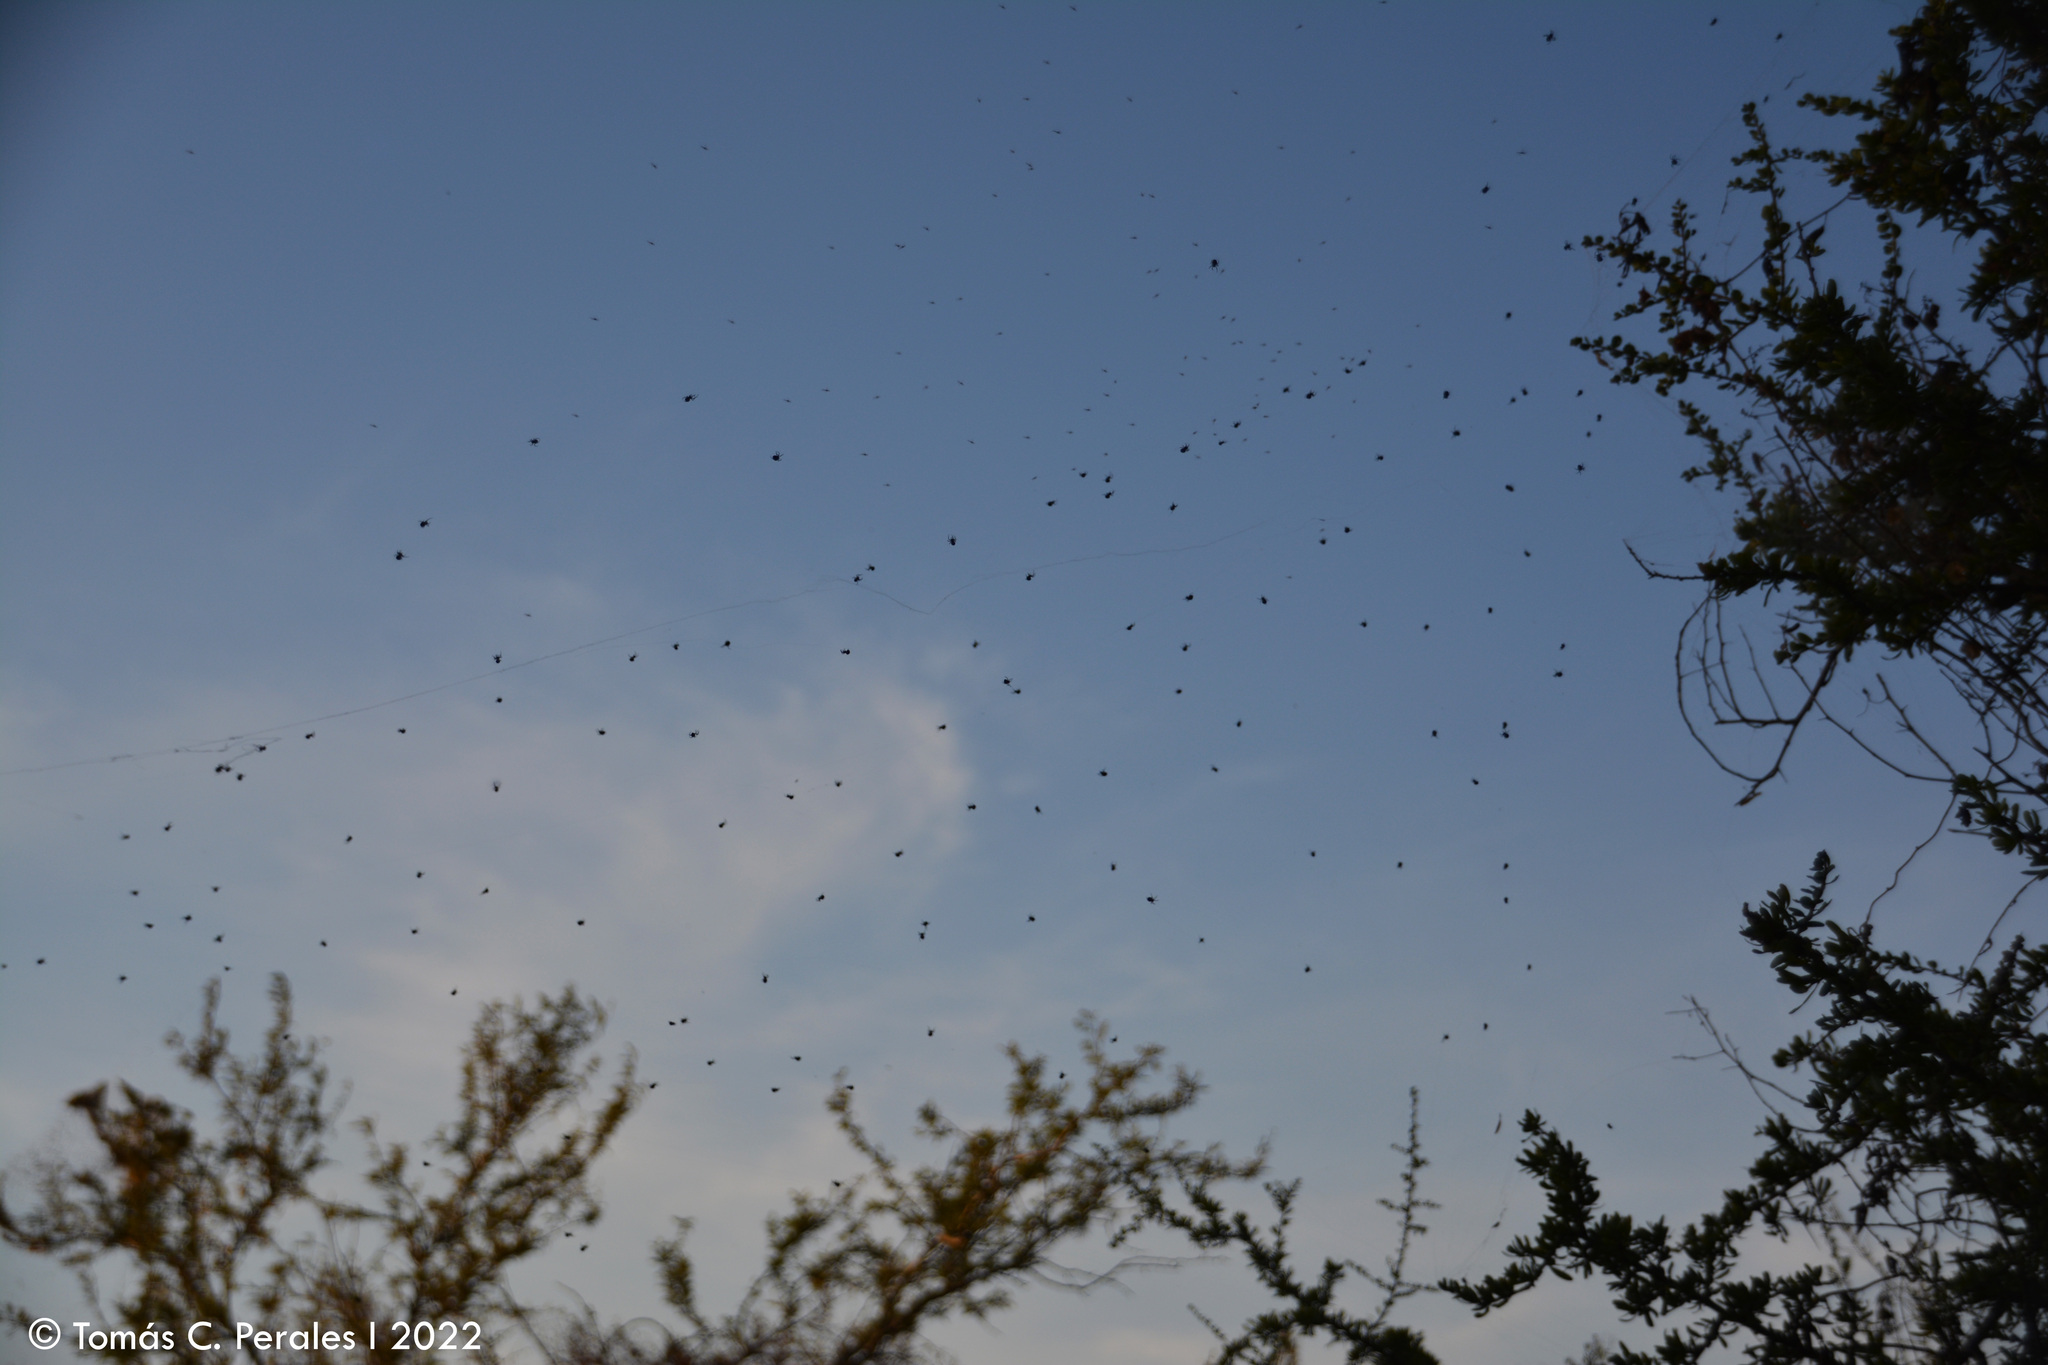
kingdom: Animalia
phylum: Arthropoda
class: Arachnida
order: Araneae
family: Araneidae
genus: Parawixia
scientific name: Parawixia bistriata
